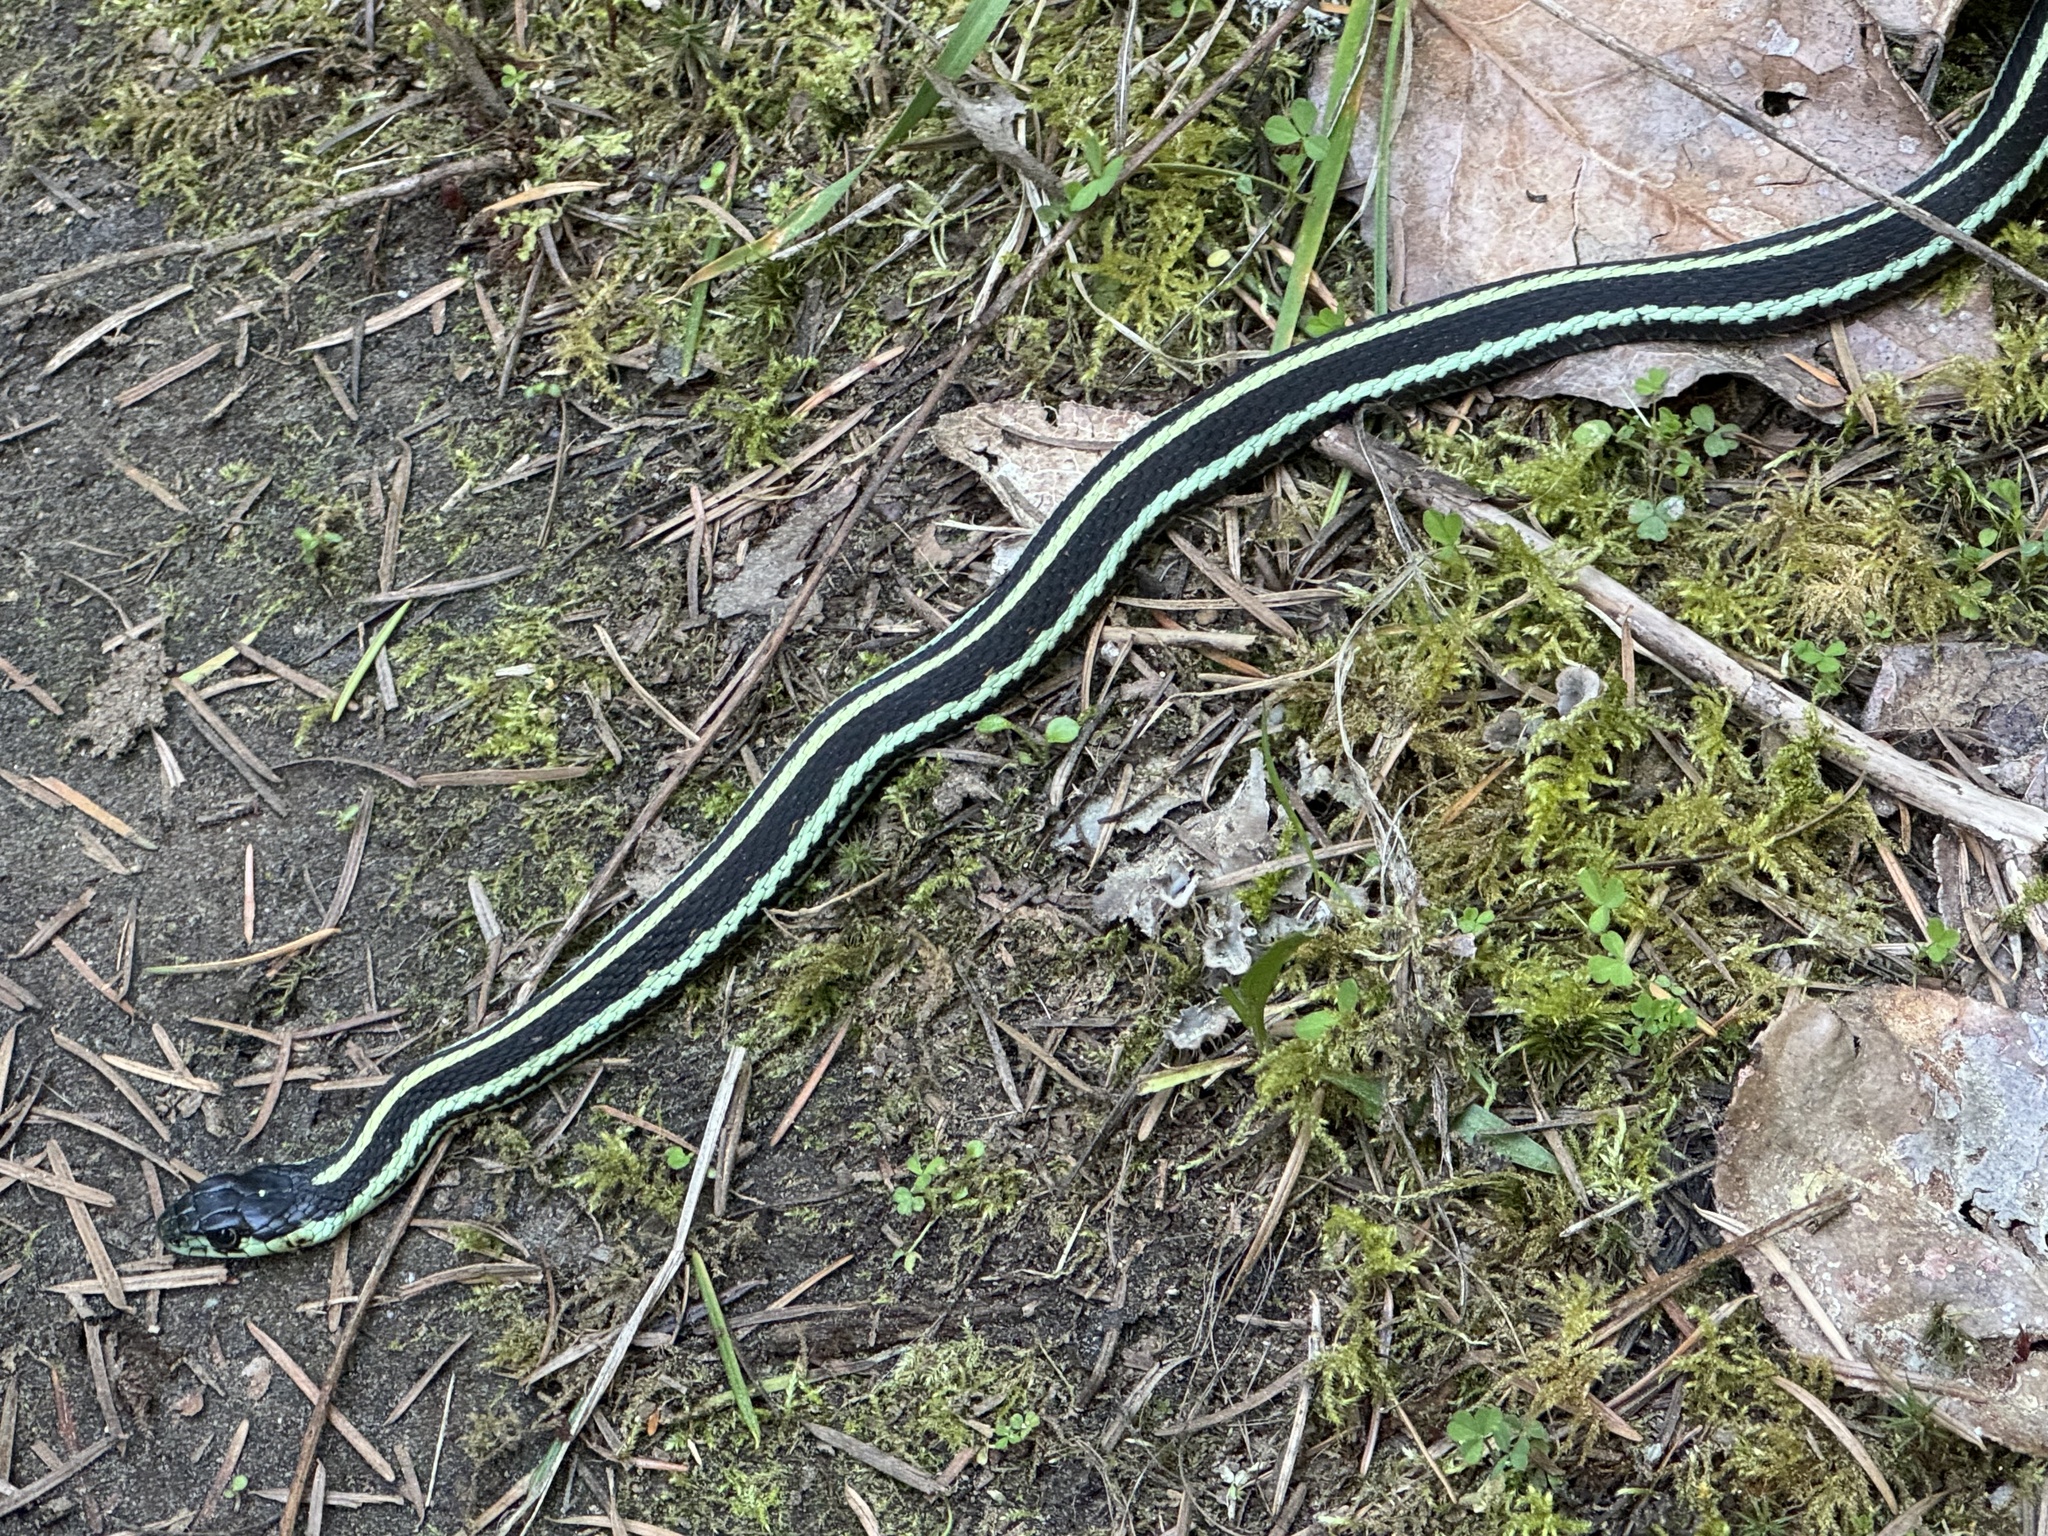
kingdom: Animalia
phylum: Chordata
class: Squamata
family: Colubridae
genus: Thamnophis
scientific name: Thamnophis sirtalis
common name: Common garter snake
